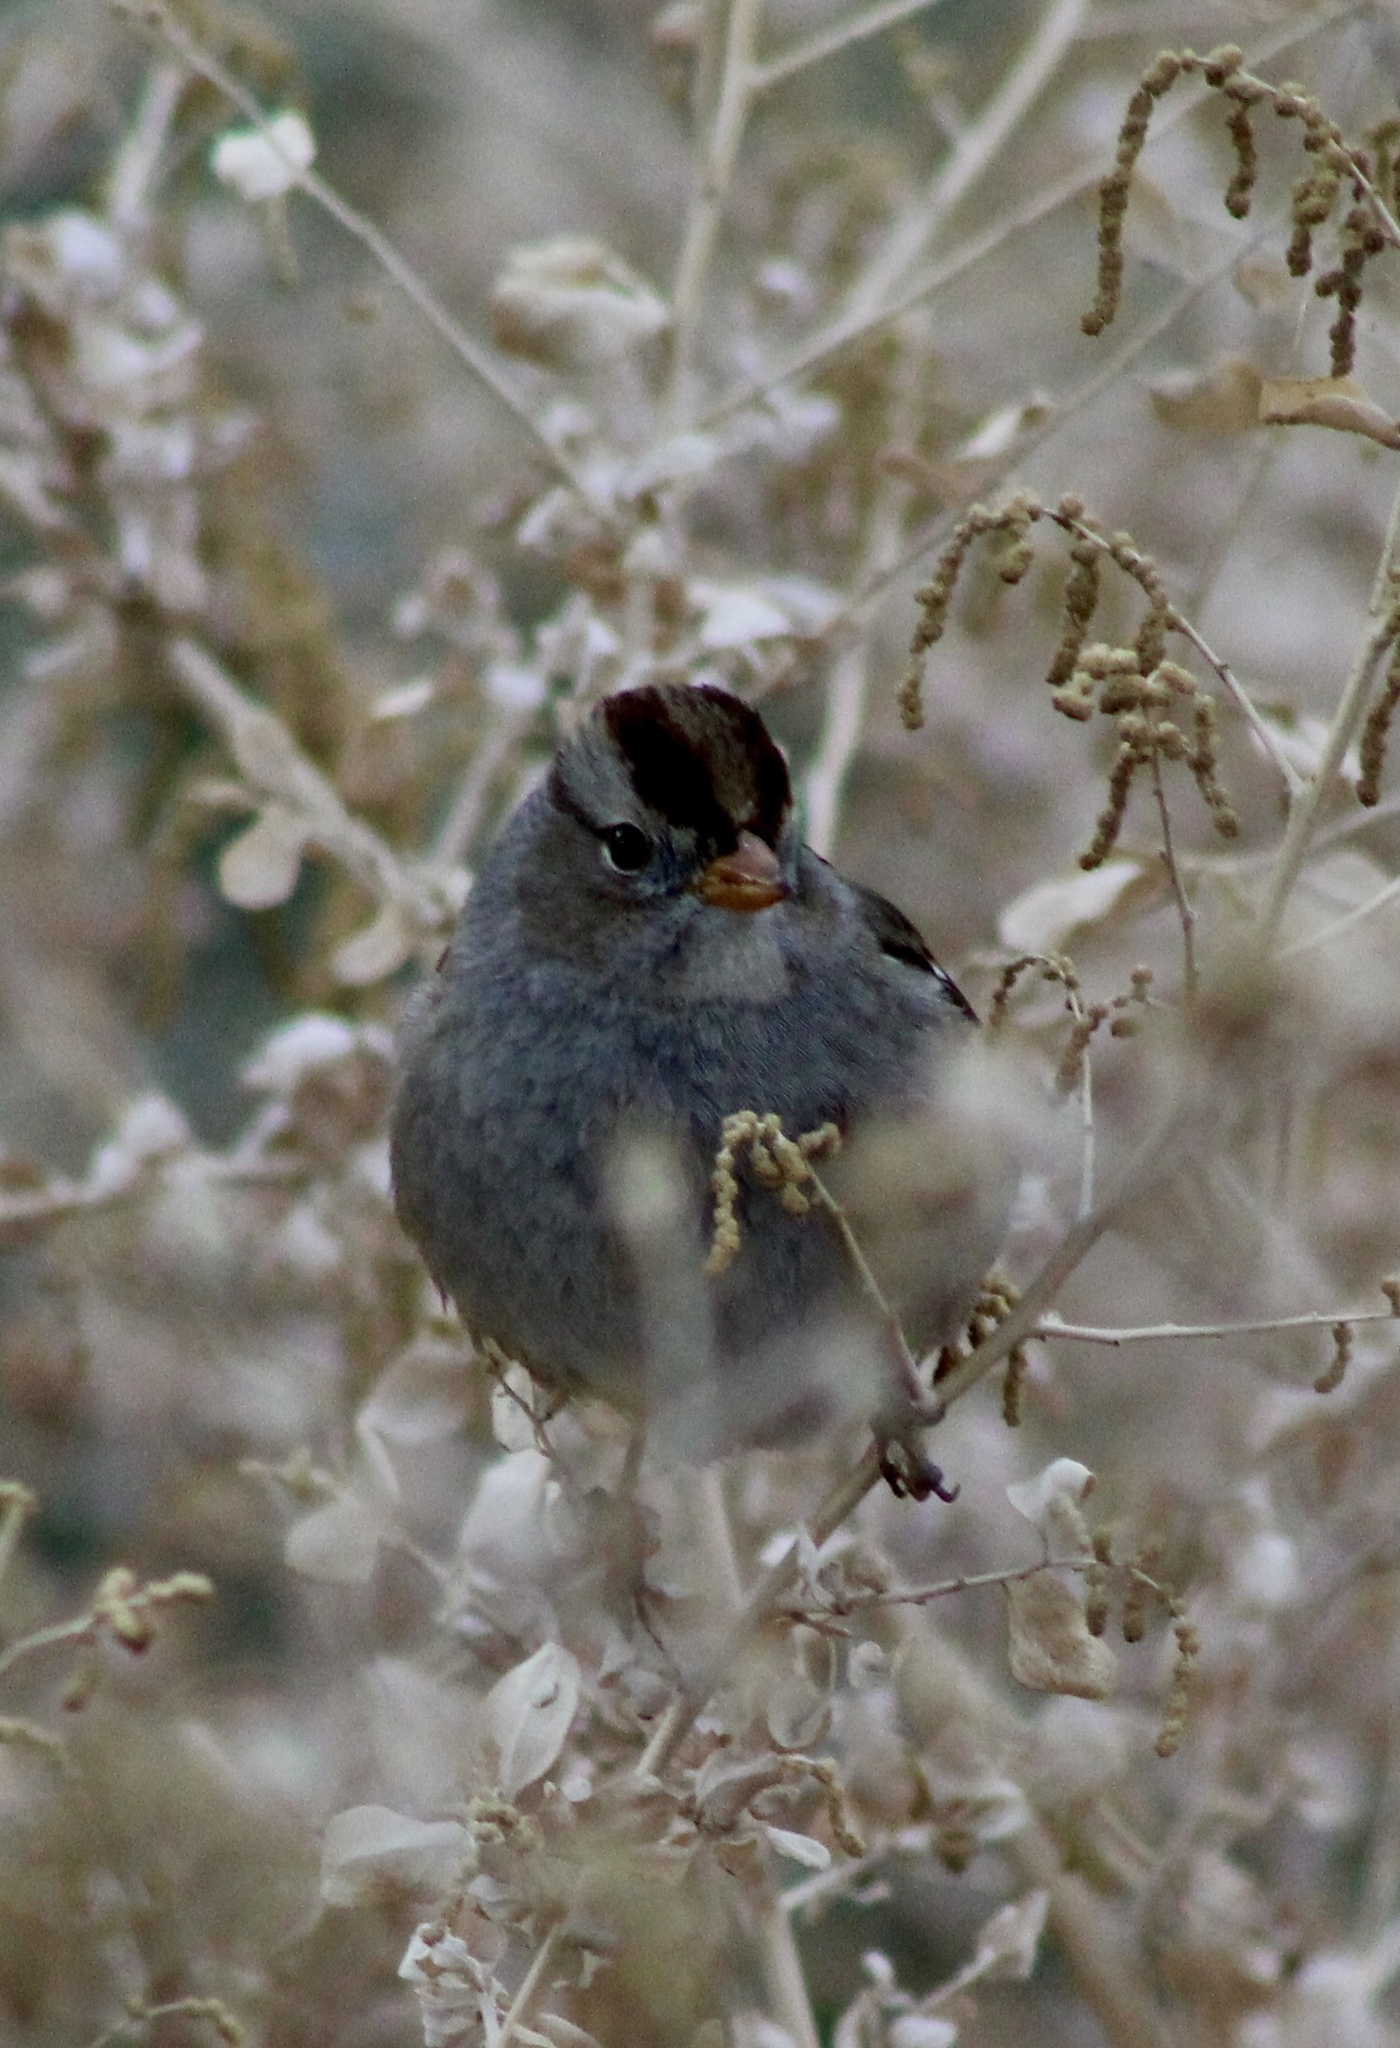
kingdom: Animalia
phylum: Chordata
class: Aves
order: Passeriformes
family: Passerellidae
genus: Zonotrichia
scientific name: Zonotrichia leucophrys
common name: White-crowned sparrow
